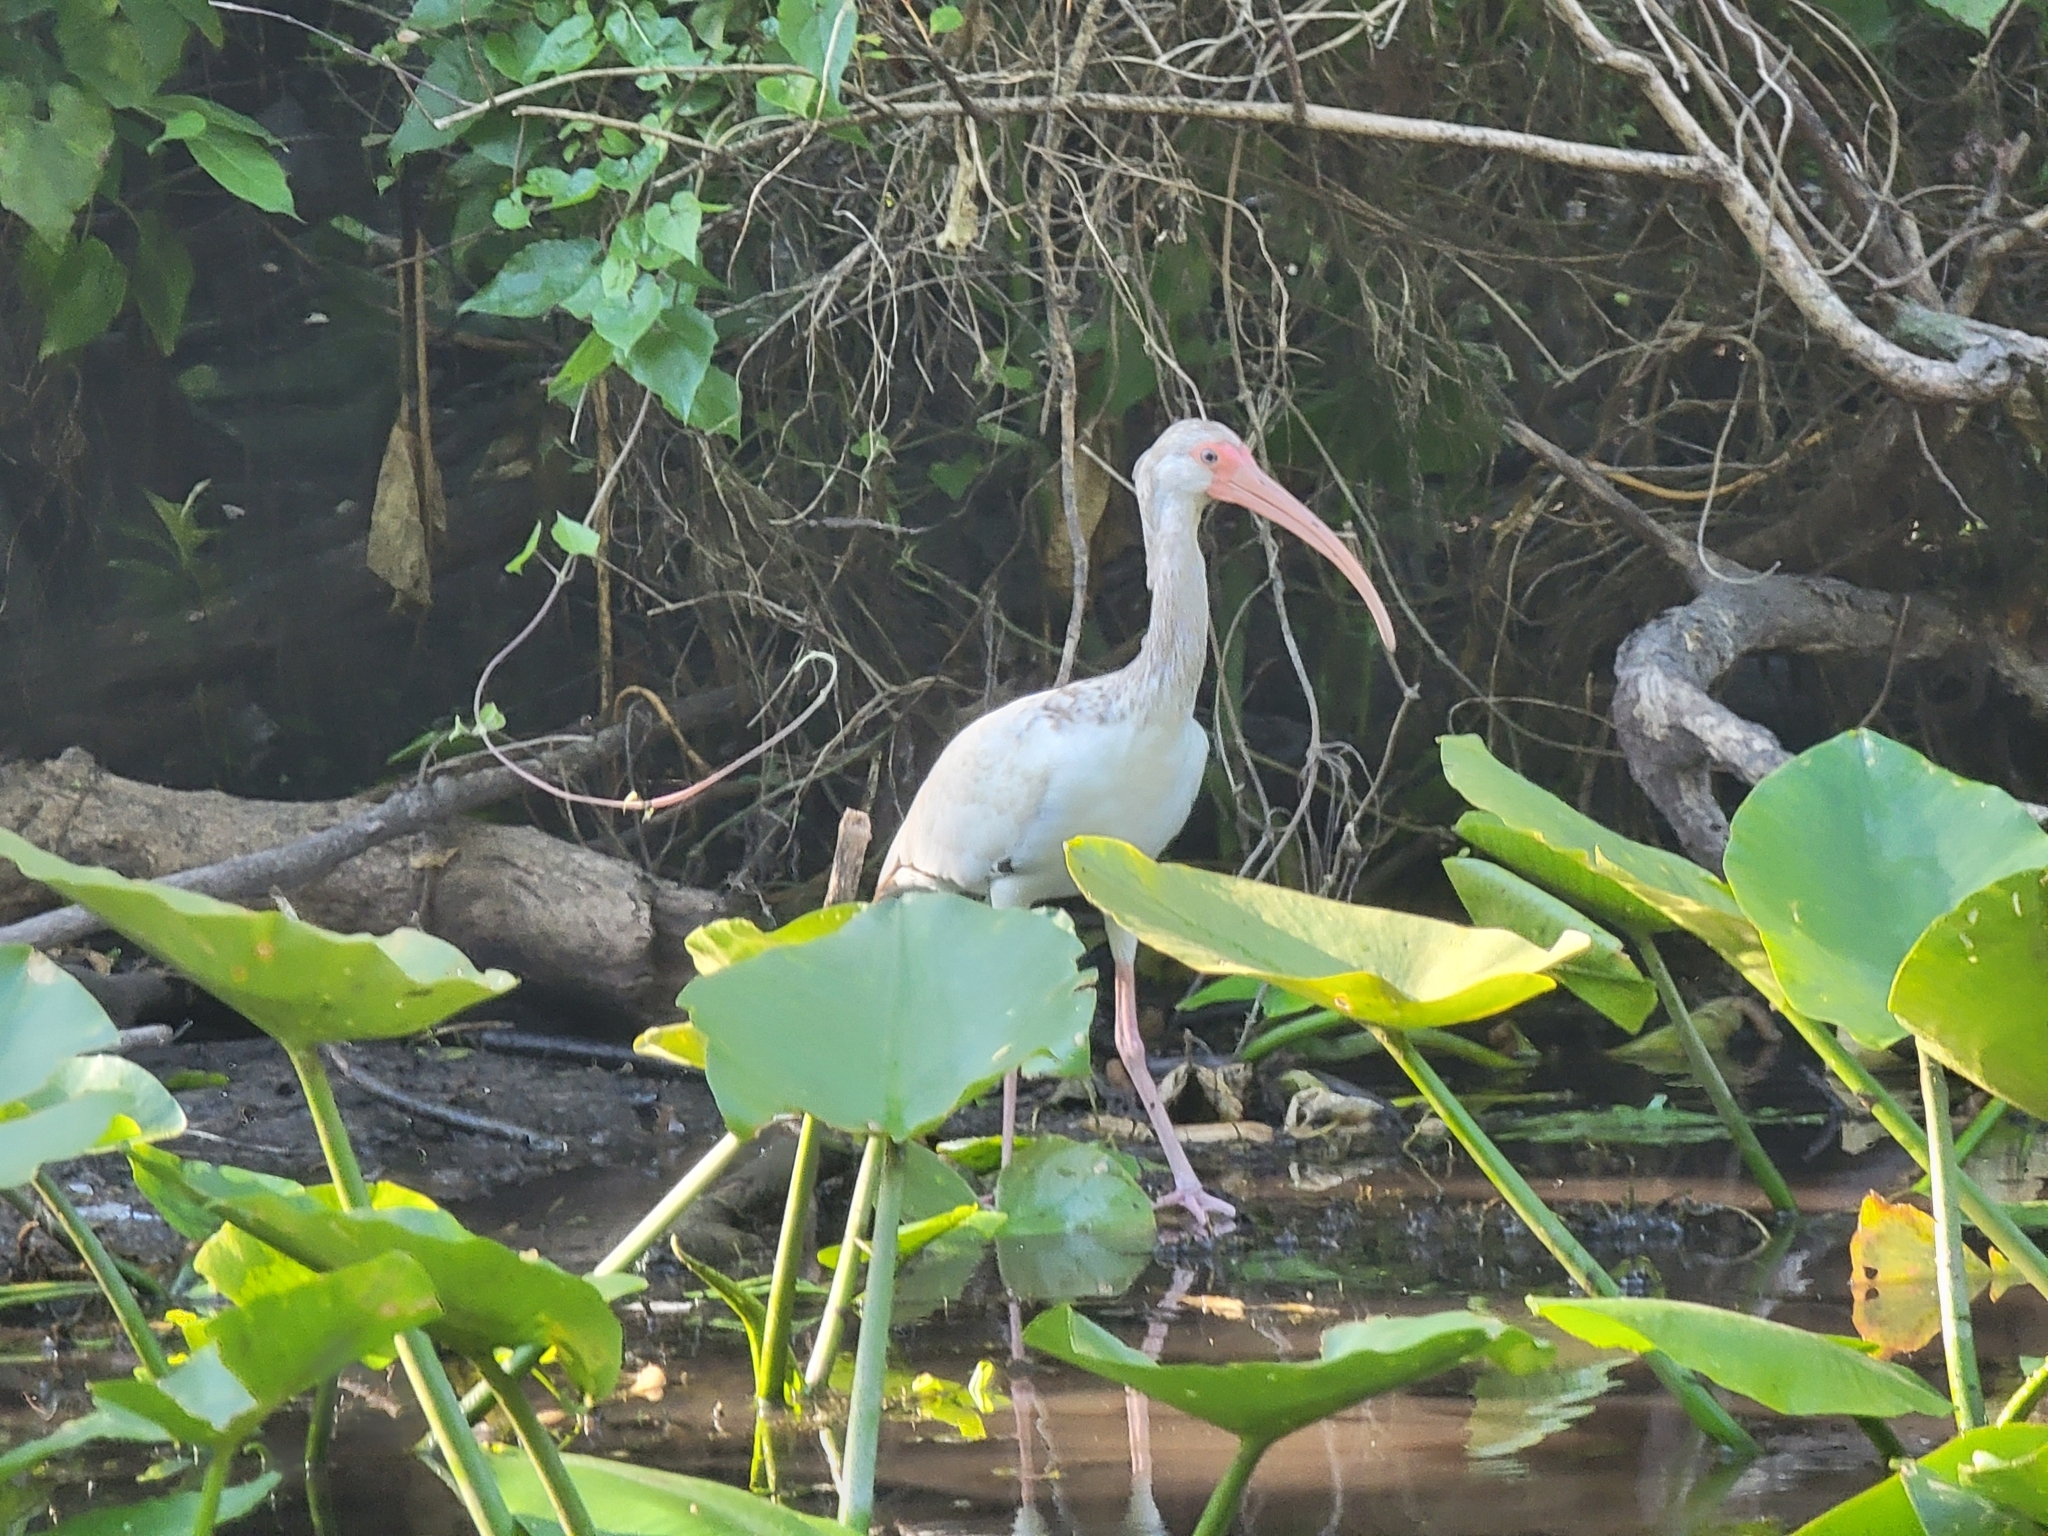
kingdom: Animalia
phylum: Chordata
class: Aves
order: Pelecaniformes
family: Threskiornithidae
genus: Eudocimus
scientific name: Eudocimus albus
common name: White ibis
